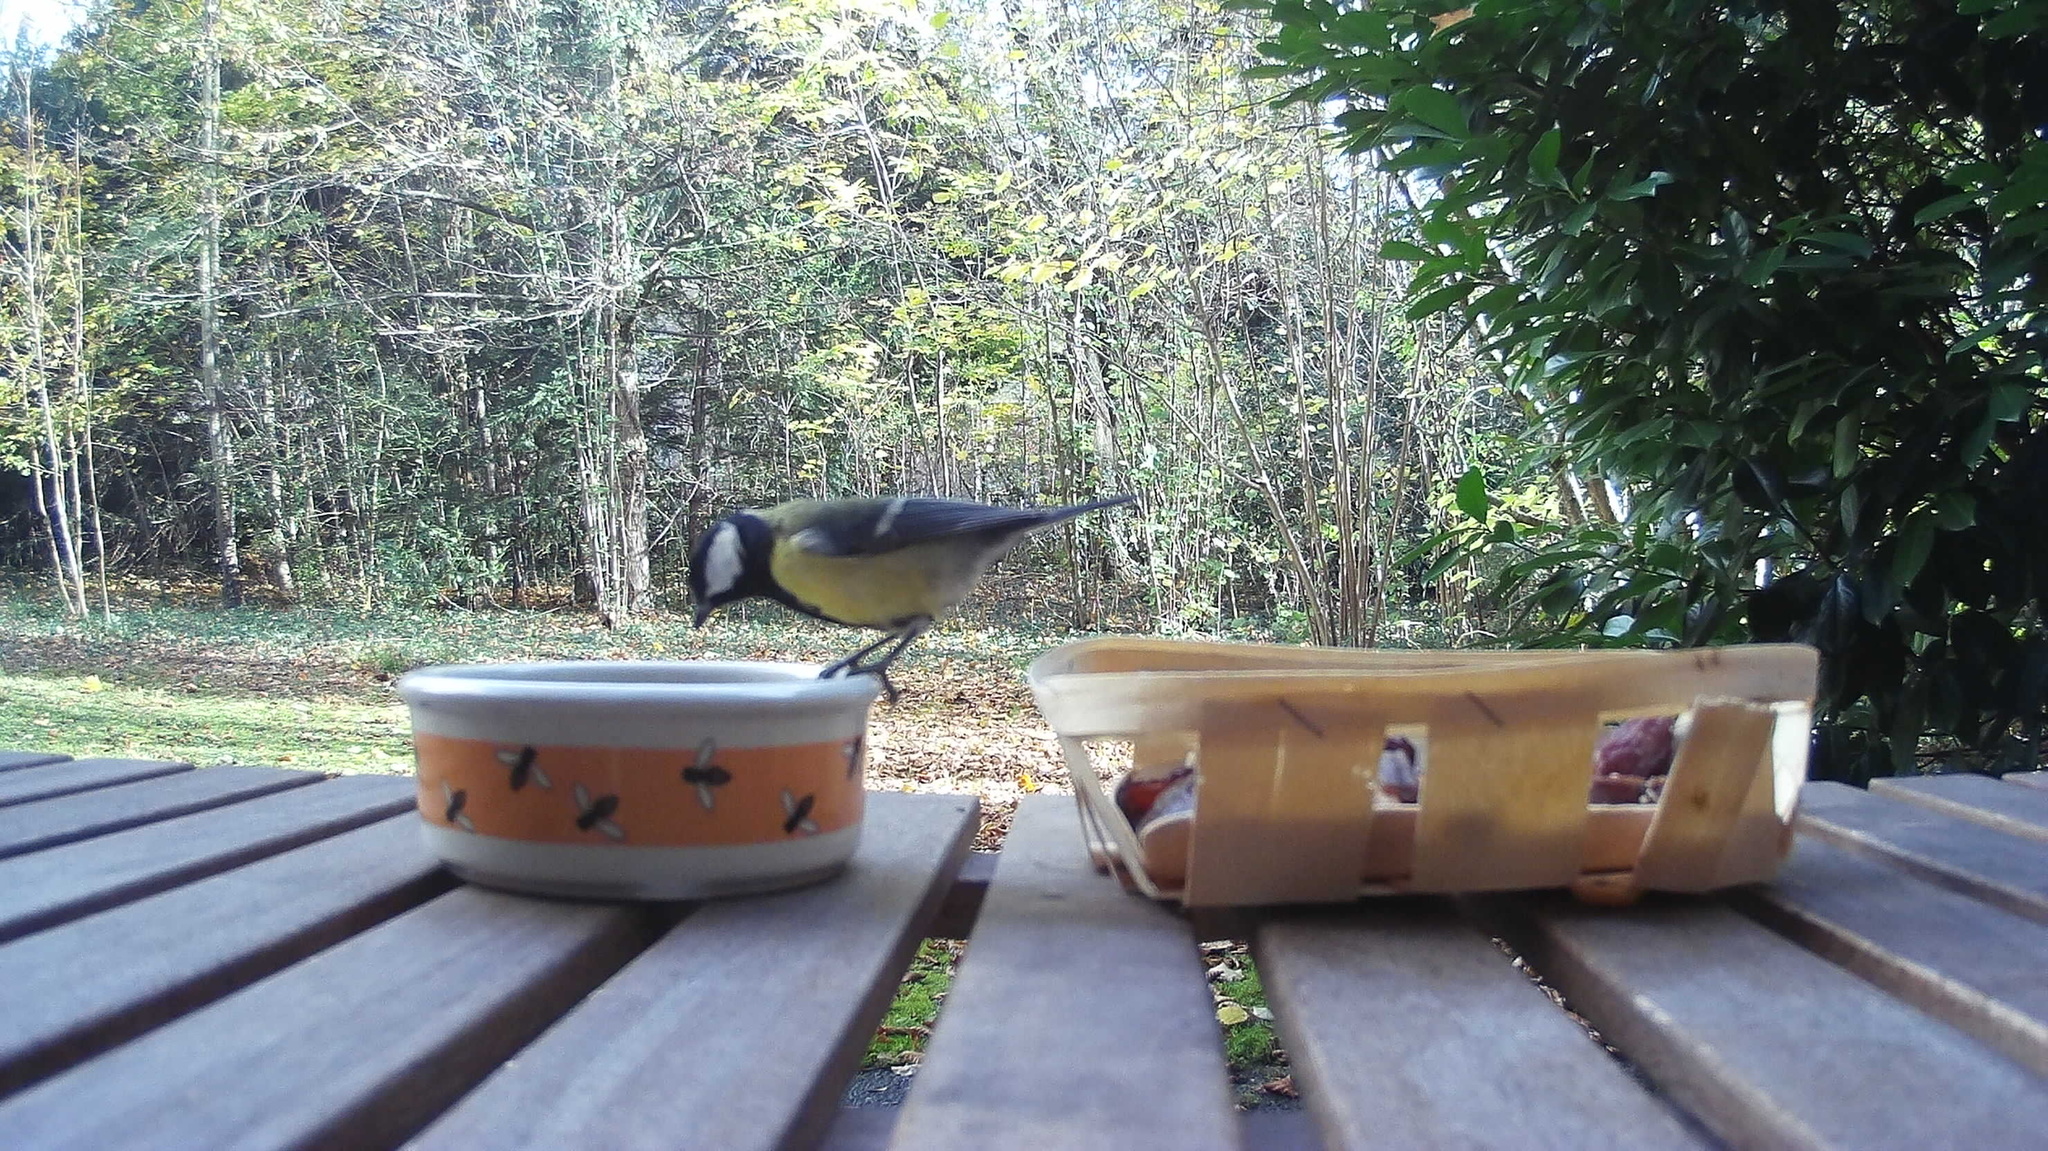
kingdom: Animalia
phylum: Chordata
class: Aves
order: Passeriformes
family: Paridae
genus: Parus
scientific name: Parus major
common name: Great tit
